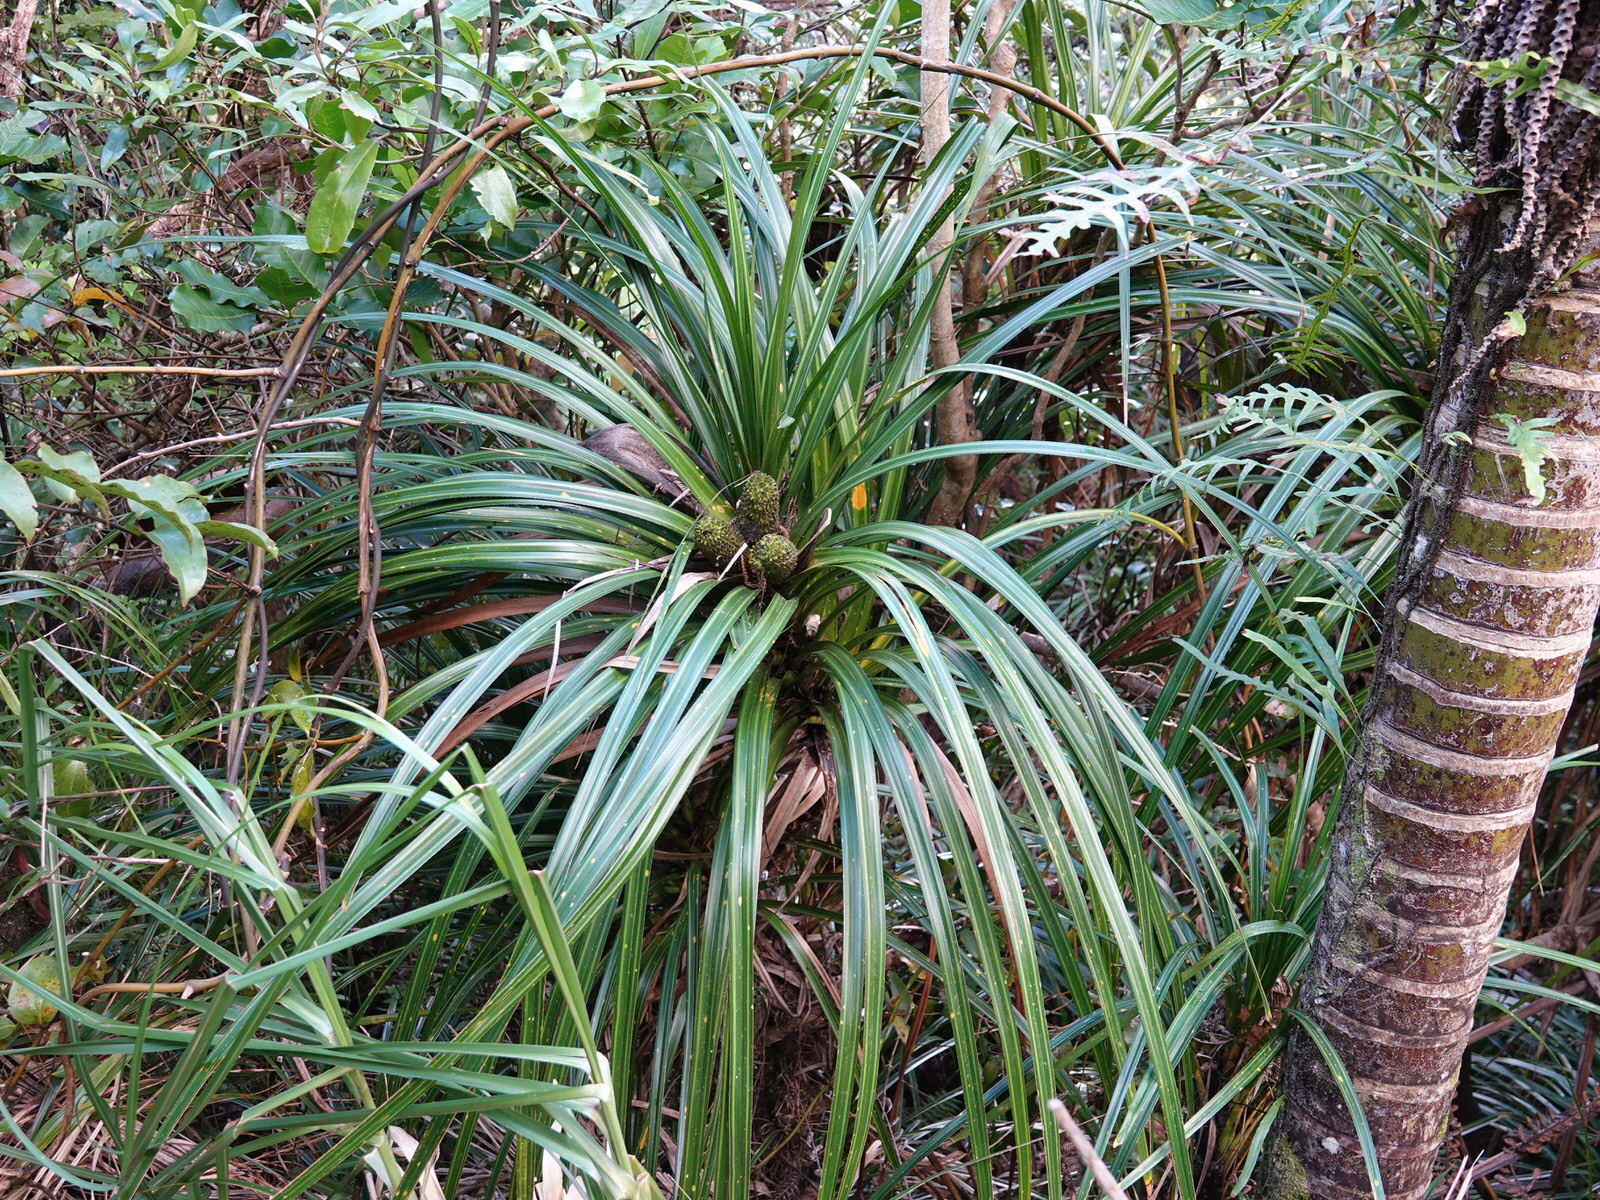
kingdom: Plantae
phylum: Tracheophyta
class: Liliopsida
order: Pandanales
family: Pandanaceae
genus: Freycinetia
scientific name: Freycinetia banksii
